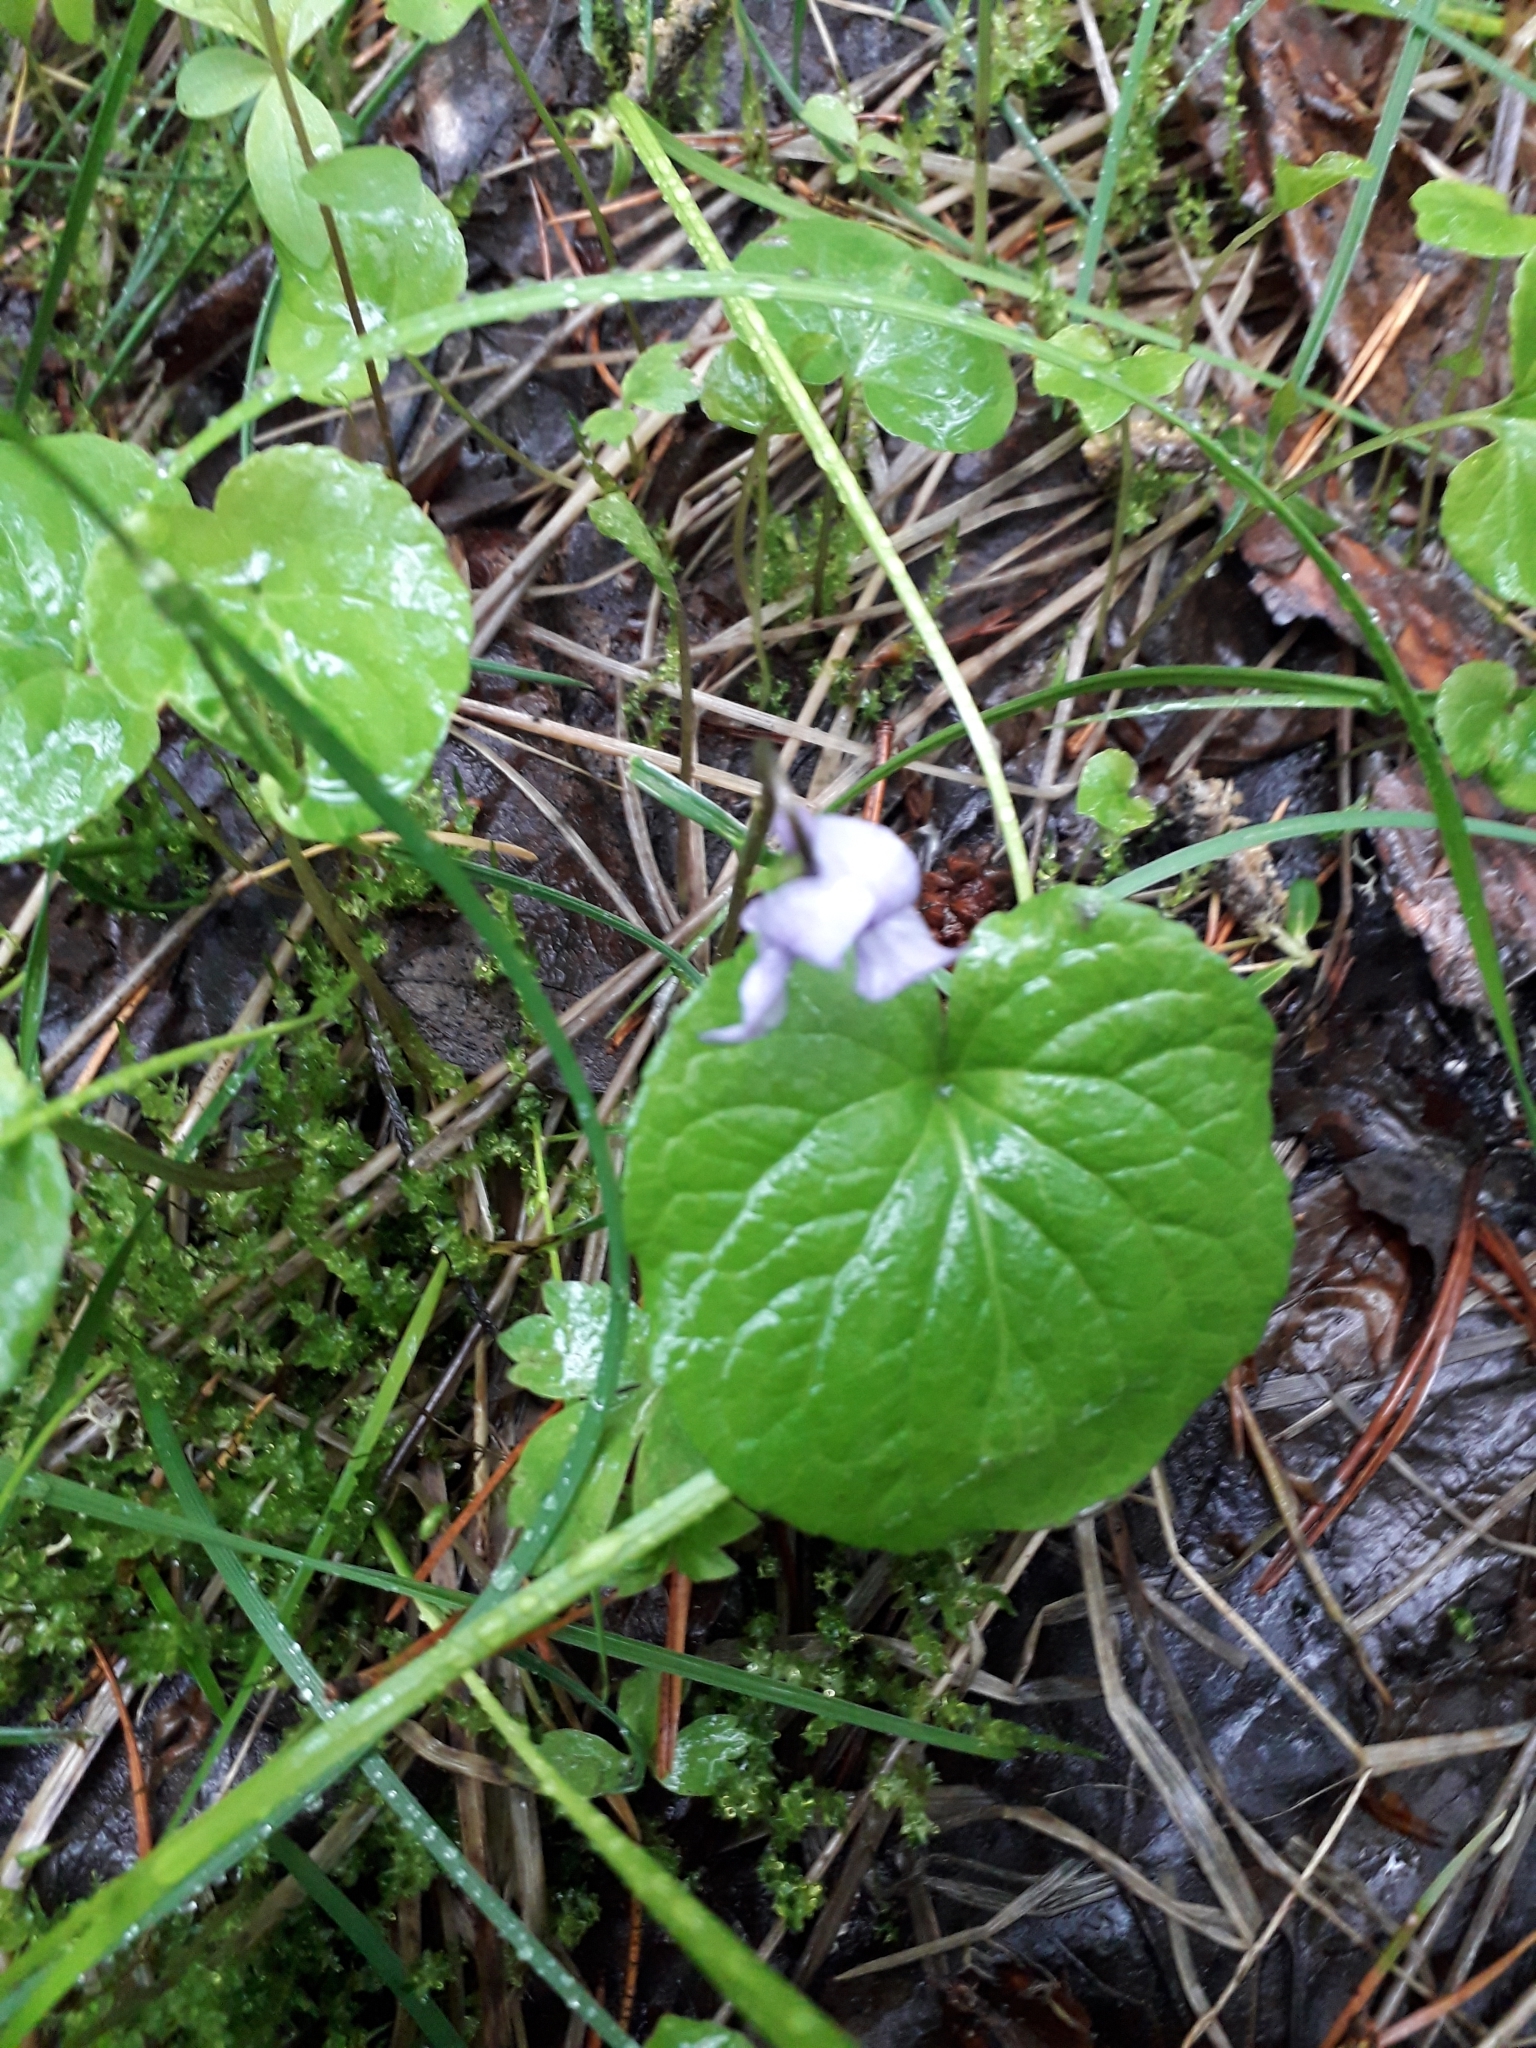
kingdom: Plantae
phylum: Tracheophyta
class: Magnoliopsida
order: Malpighiales
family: Violaceae
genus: Viola
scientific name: Viola epipsila
